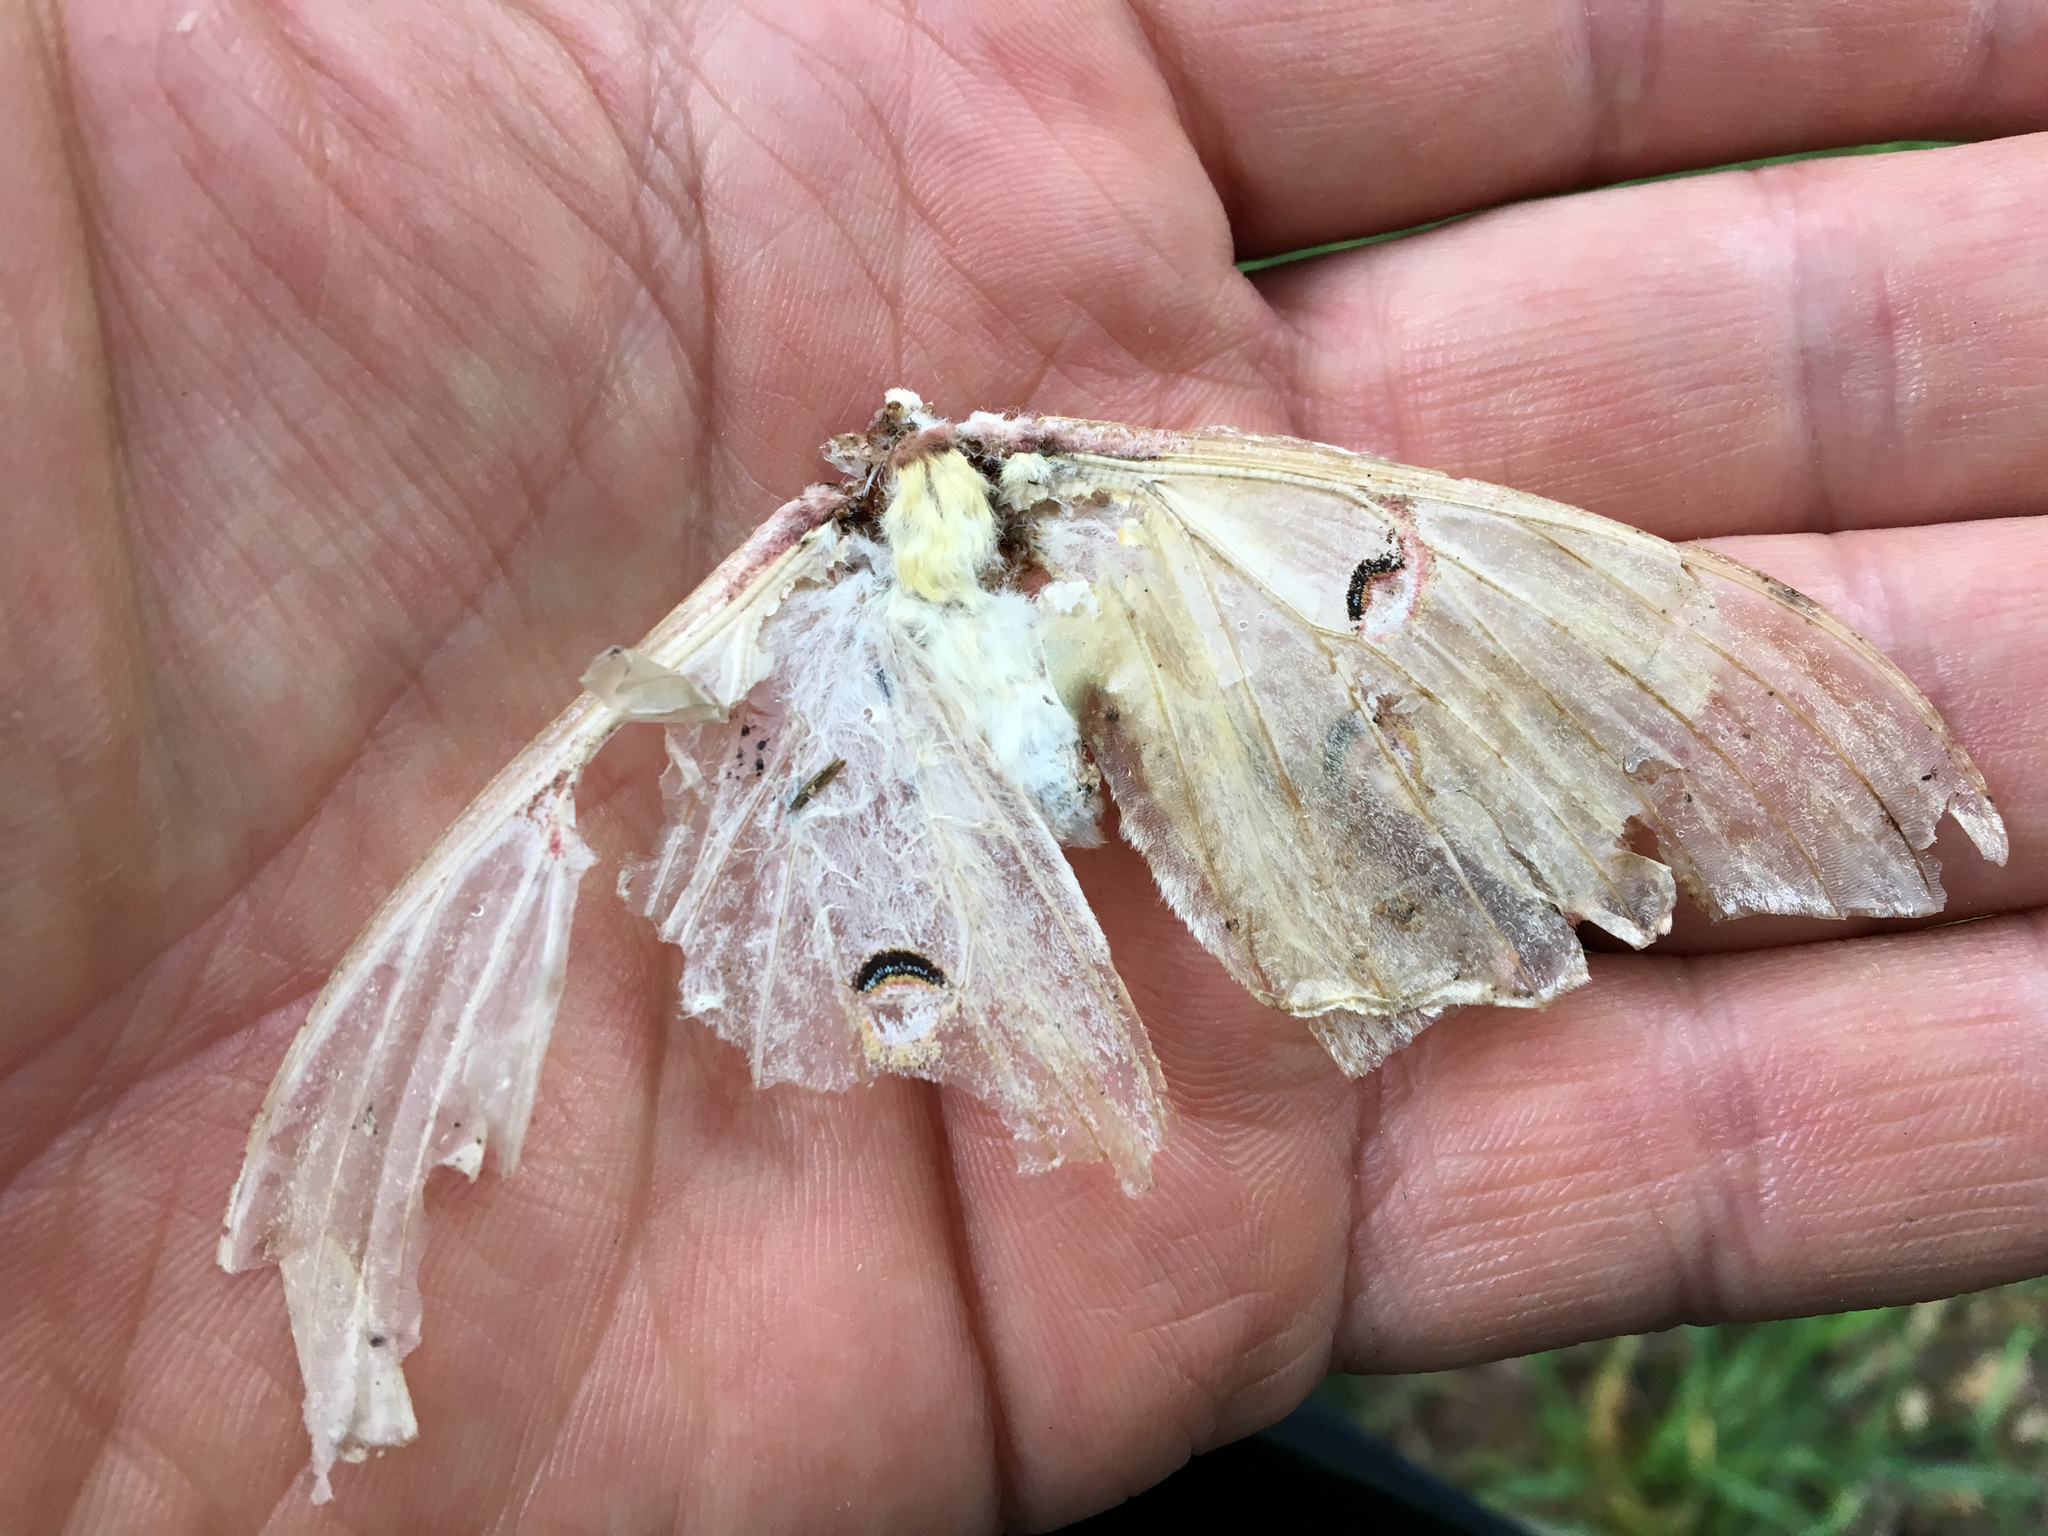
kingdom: Animalia
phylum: Arthropoda
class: Insecta
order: Lepidoptera
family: Saturniidae
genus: Actias
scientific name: Actias luna
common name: Luna moth
